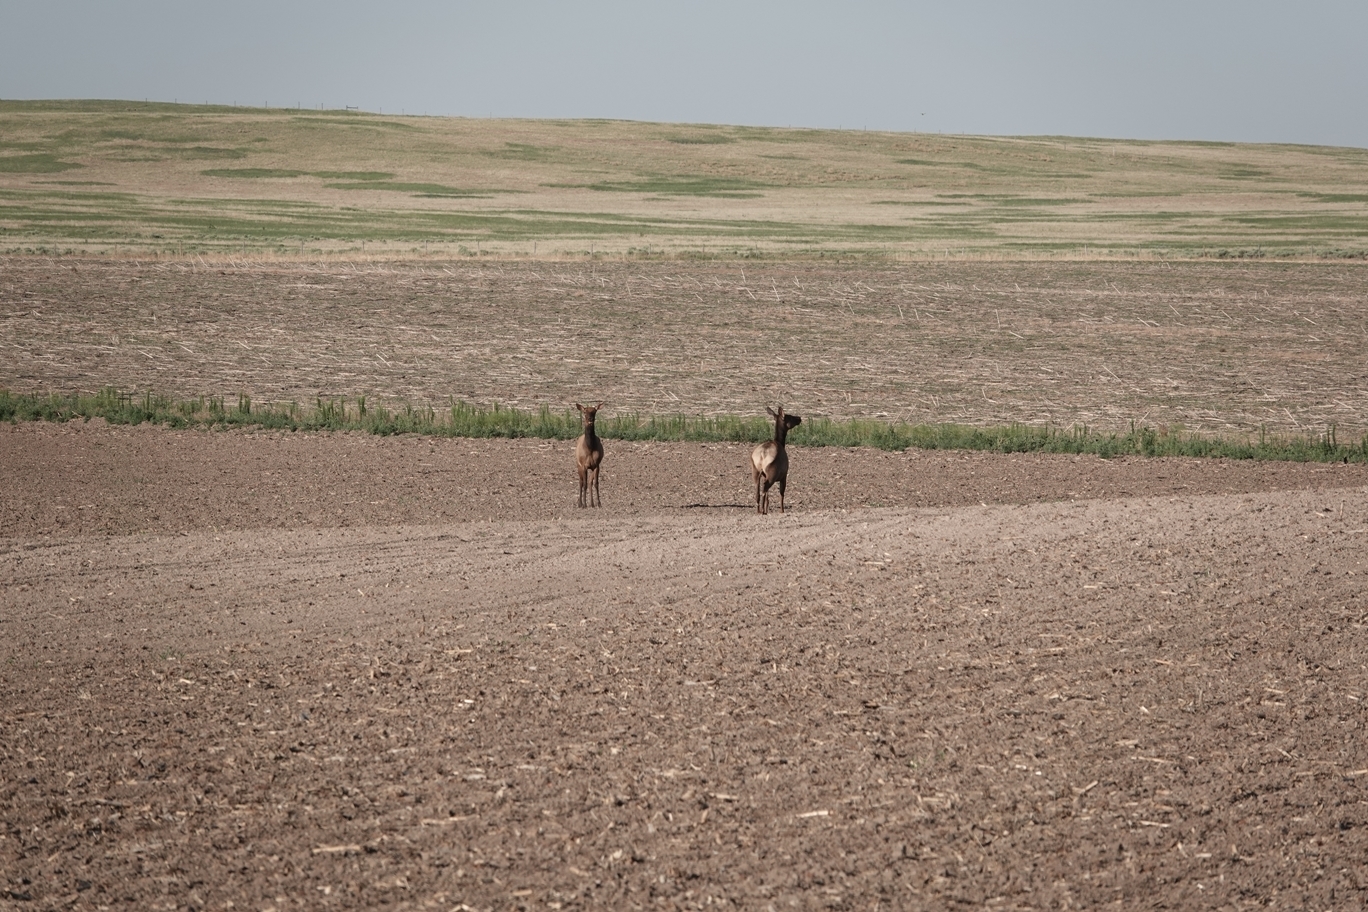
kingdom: Animalia
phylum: Chordata
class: Mammalia
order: Artiodactyla
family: Cervidae
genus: Cervus
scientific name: Cervus elaphus
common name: Red deer
